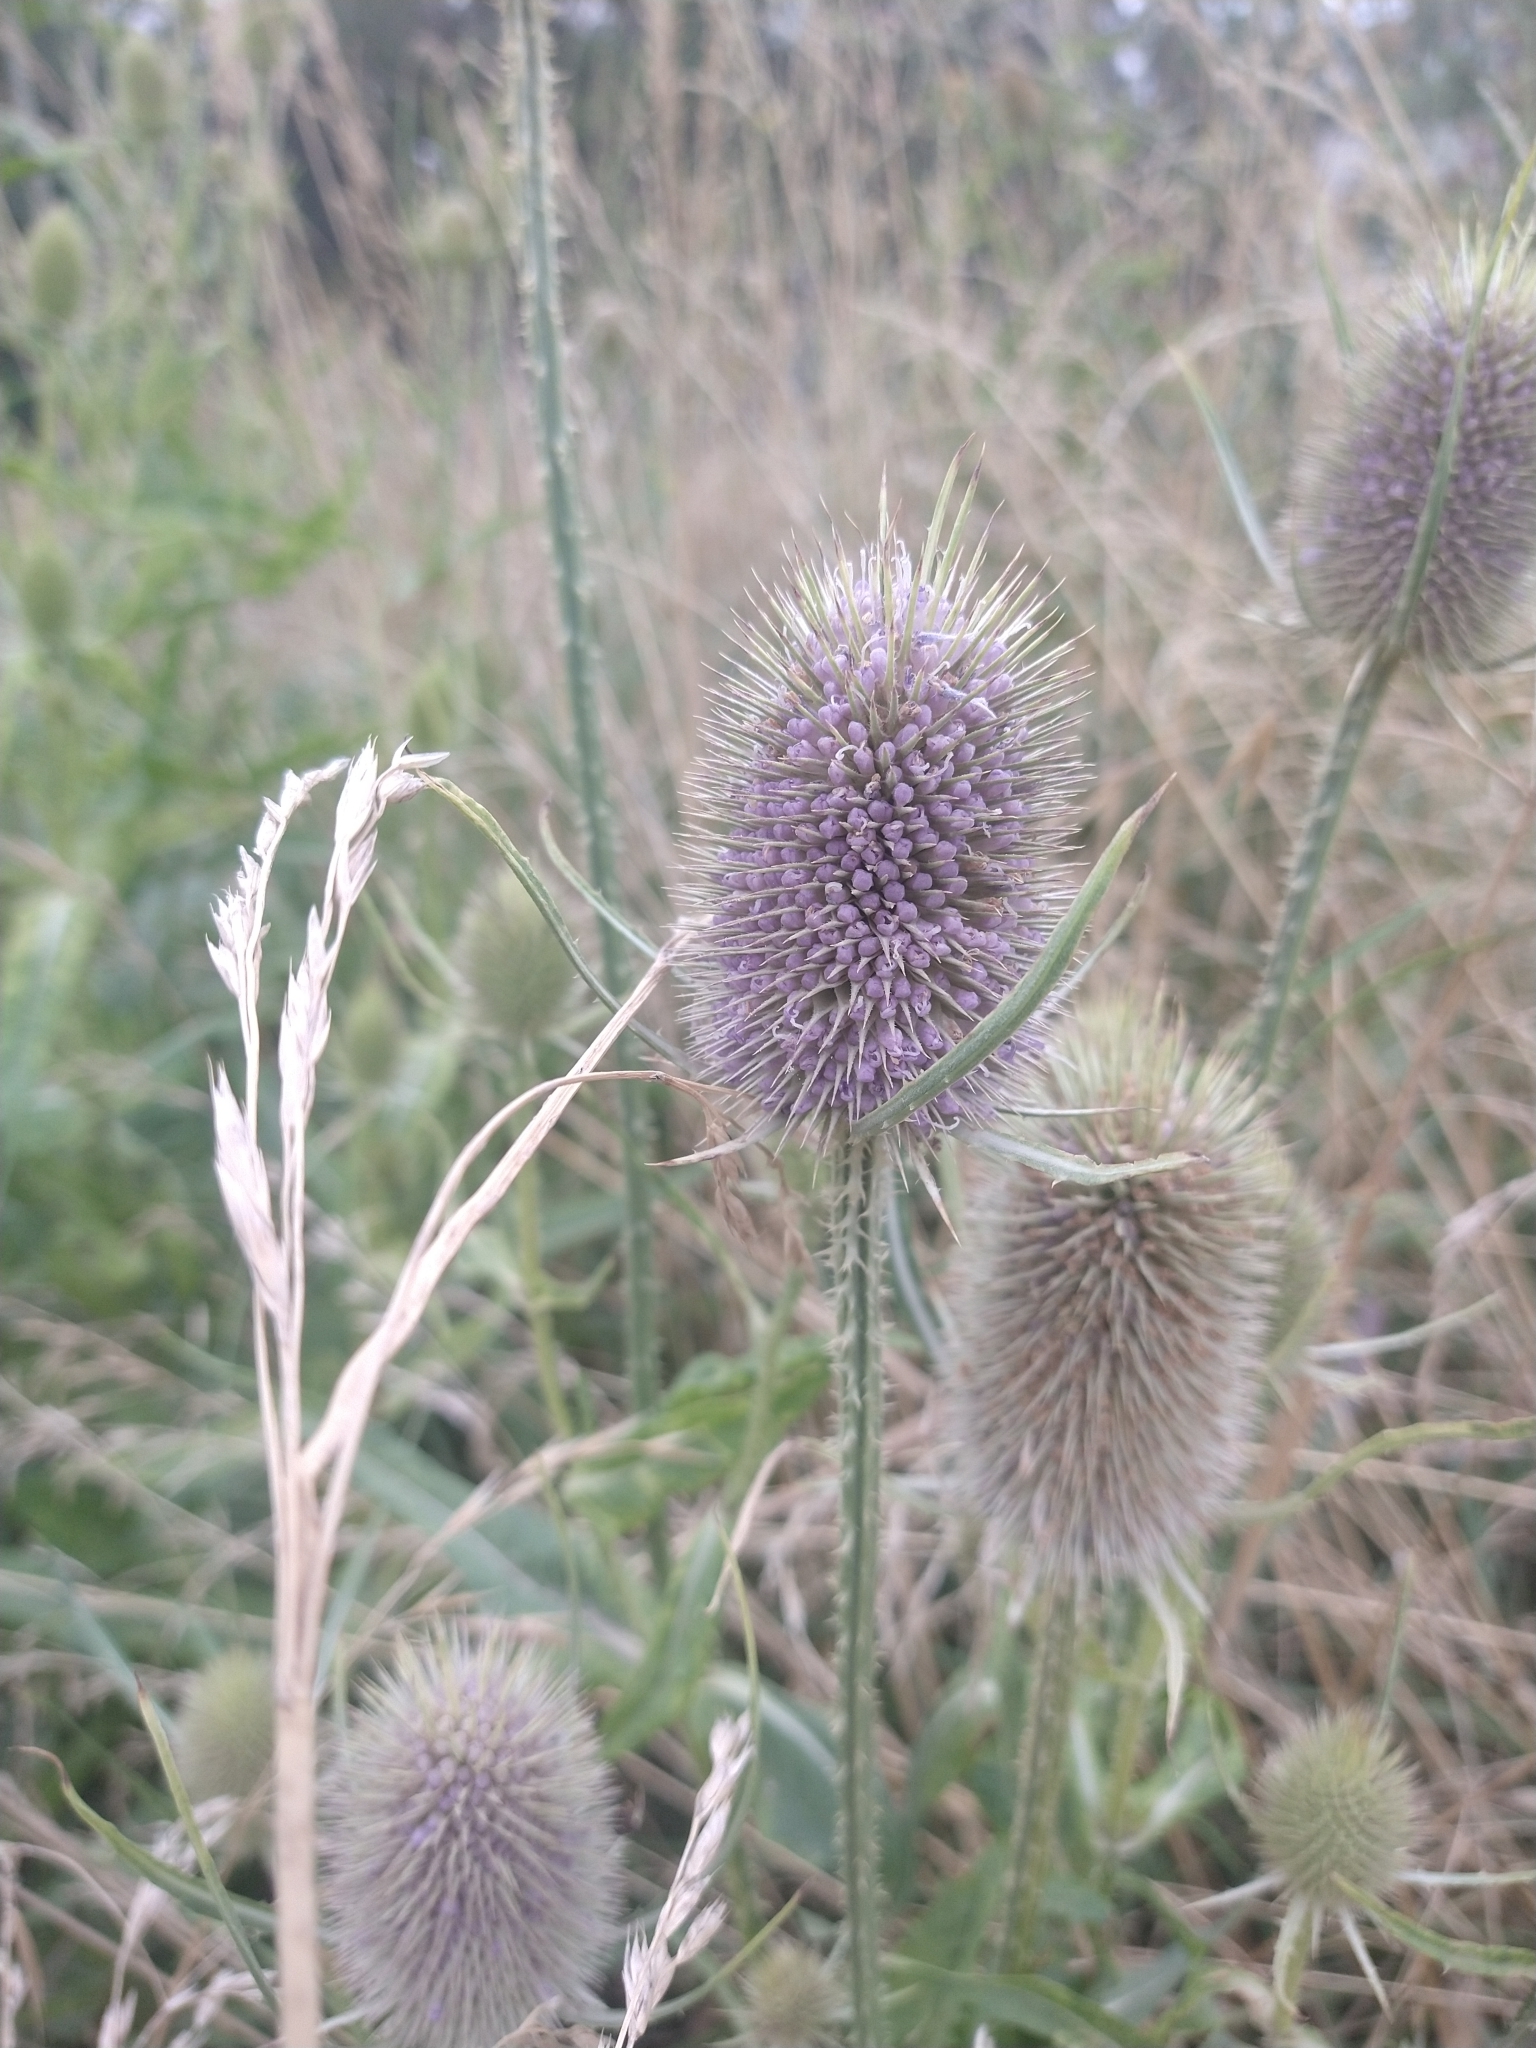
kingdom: Plantae
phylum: Tracheophyta
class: Magnoliopsida
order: Dipsacales
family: Caprifoliaceae
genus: Dipsacus
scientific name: Dipsacus fullonum
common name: Teasel
